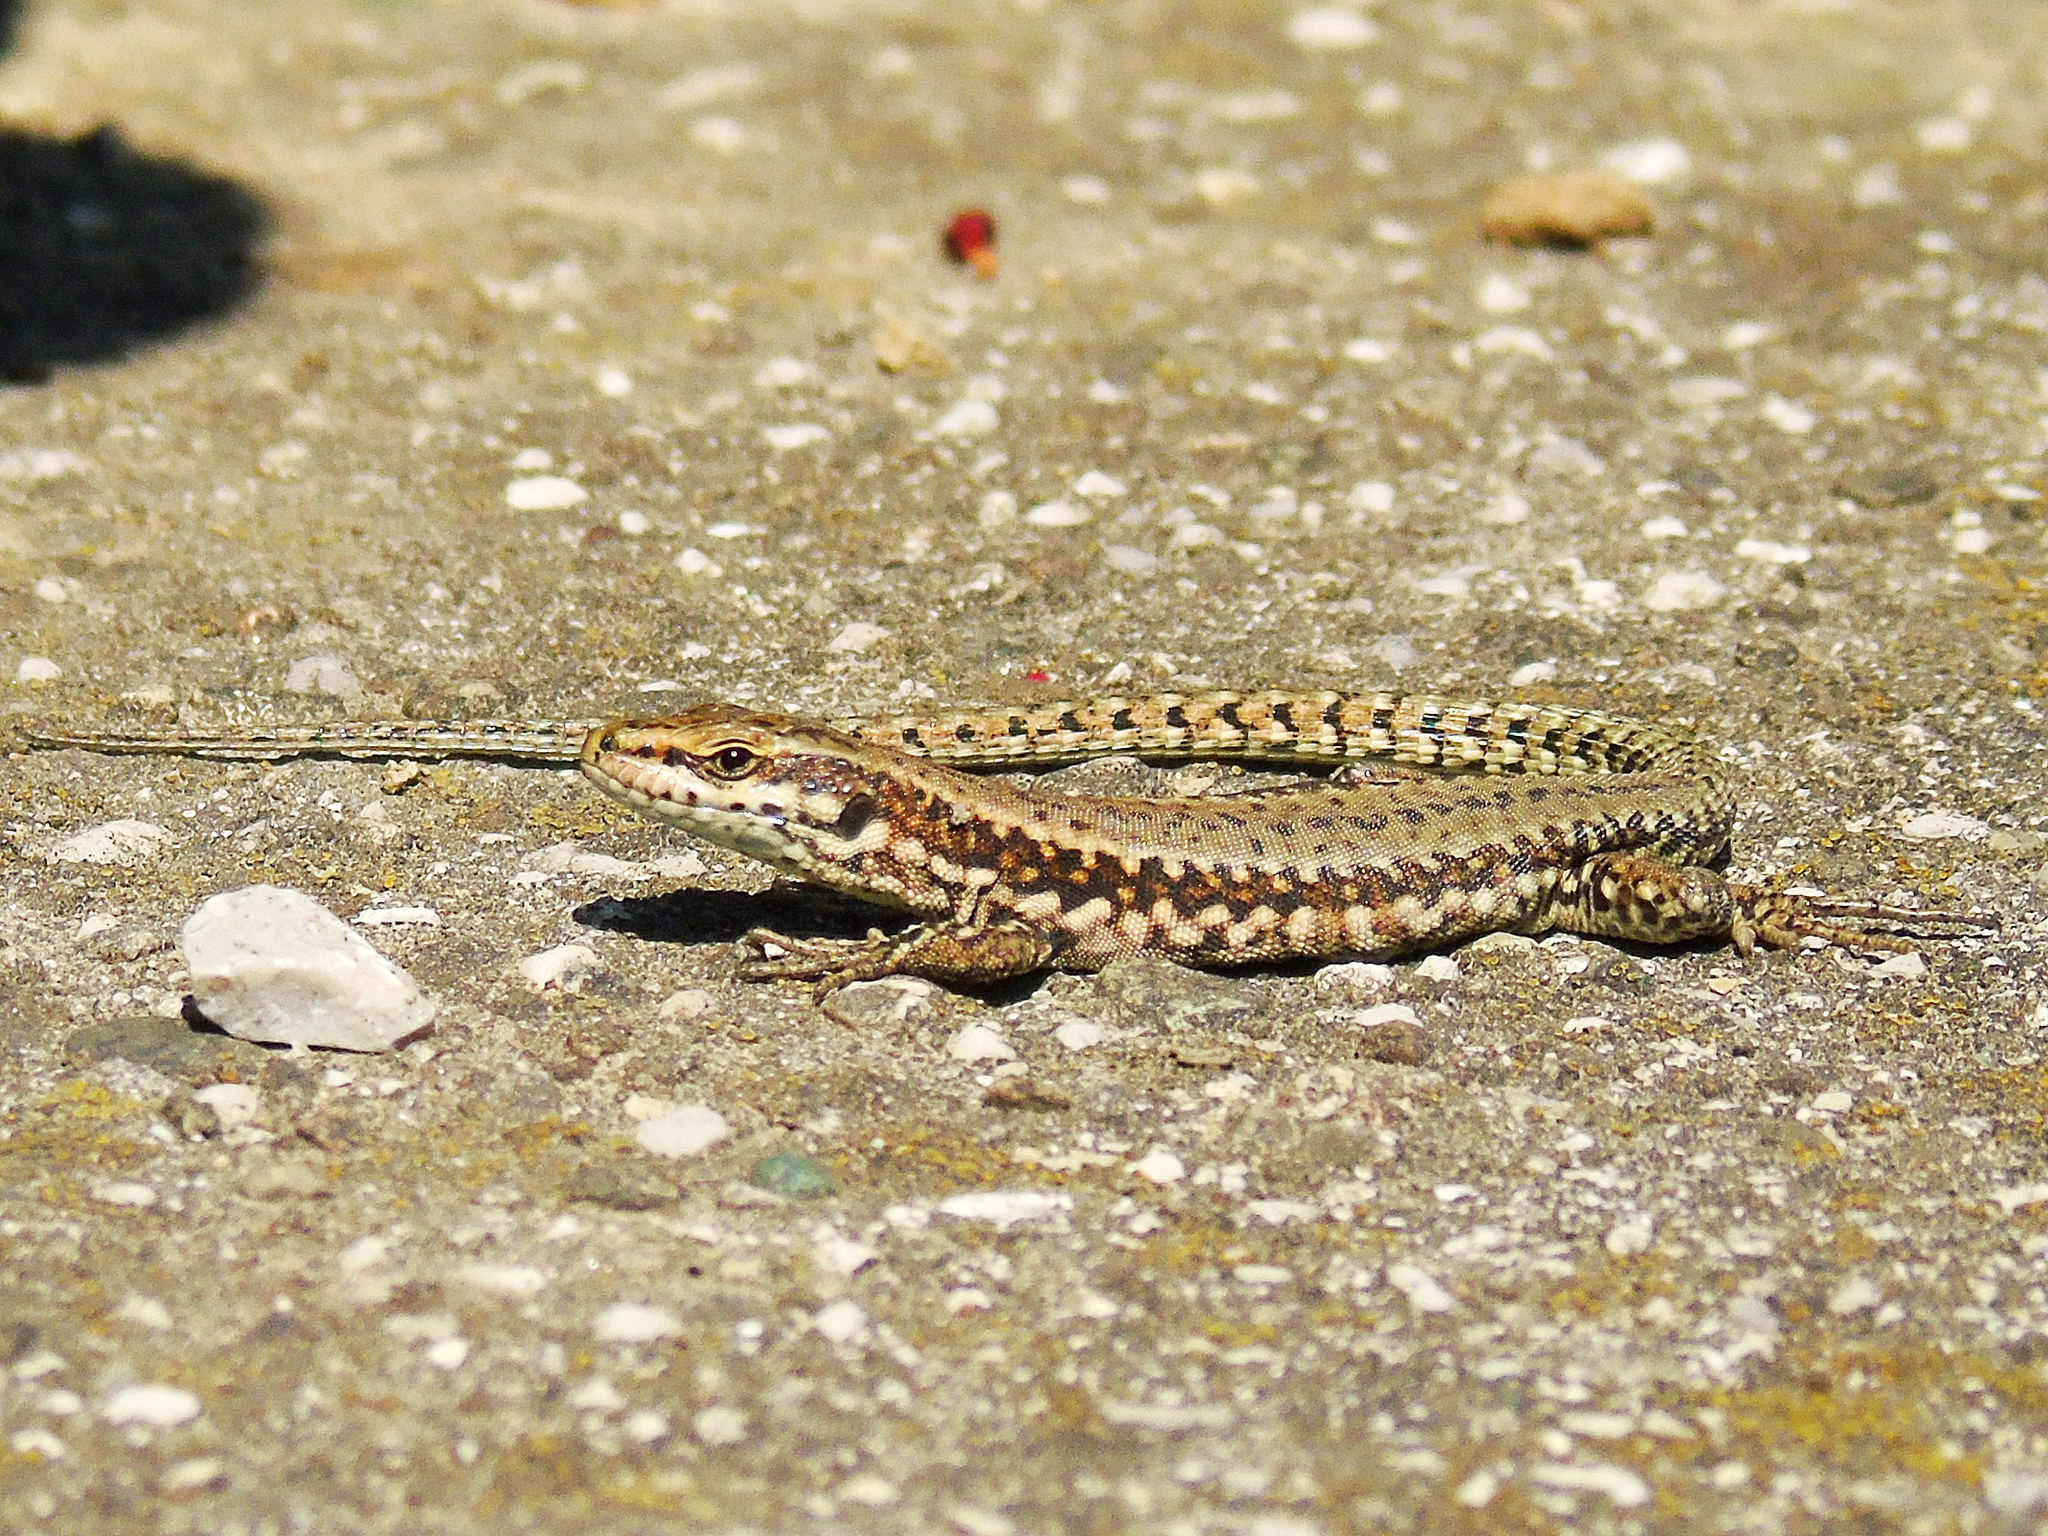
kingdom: Animalia
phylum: Chordata
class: Squamata
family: Lacertidae
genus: Podarcis
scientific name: Podarcis muralis
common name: Common wall lizard
